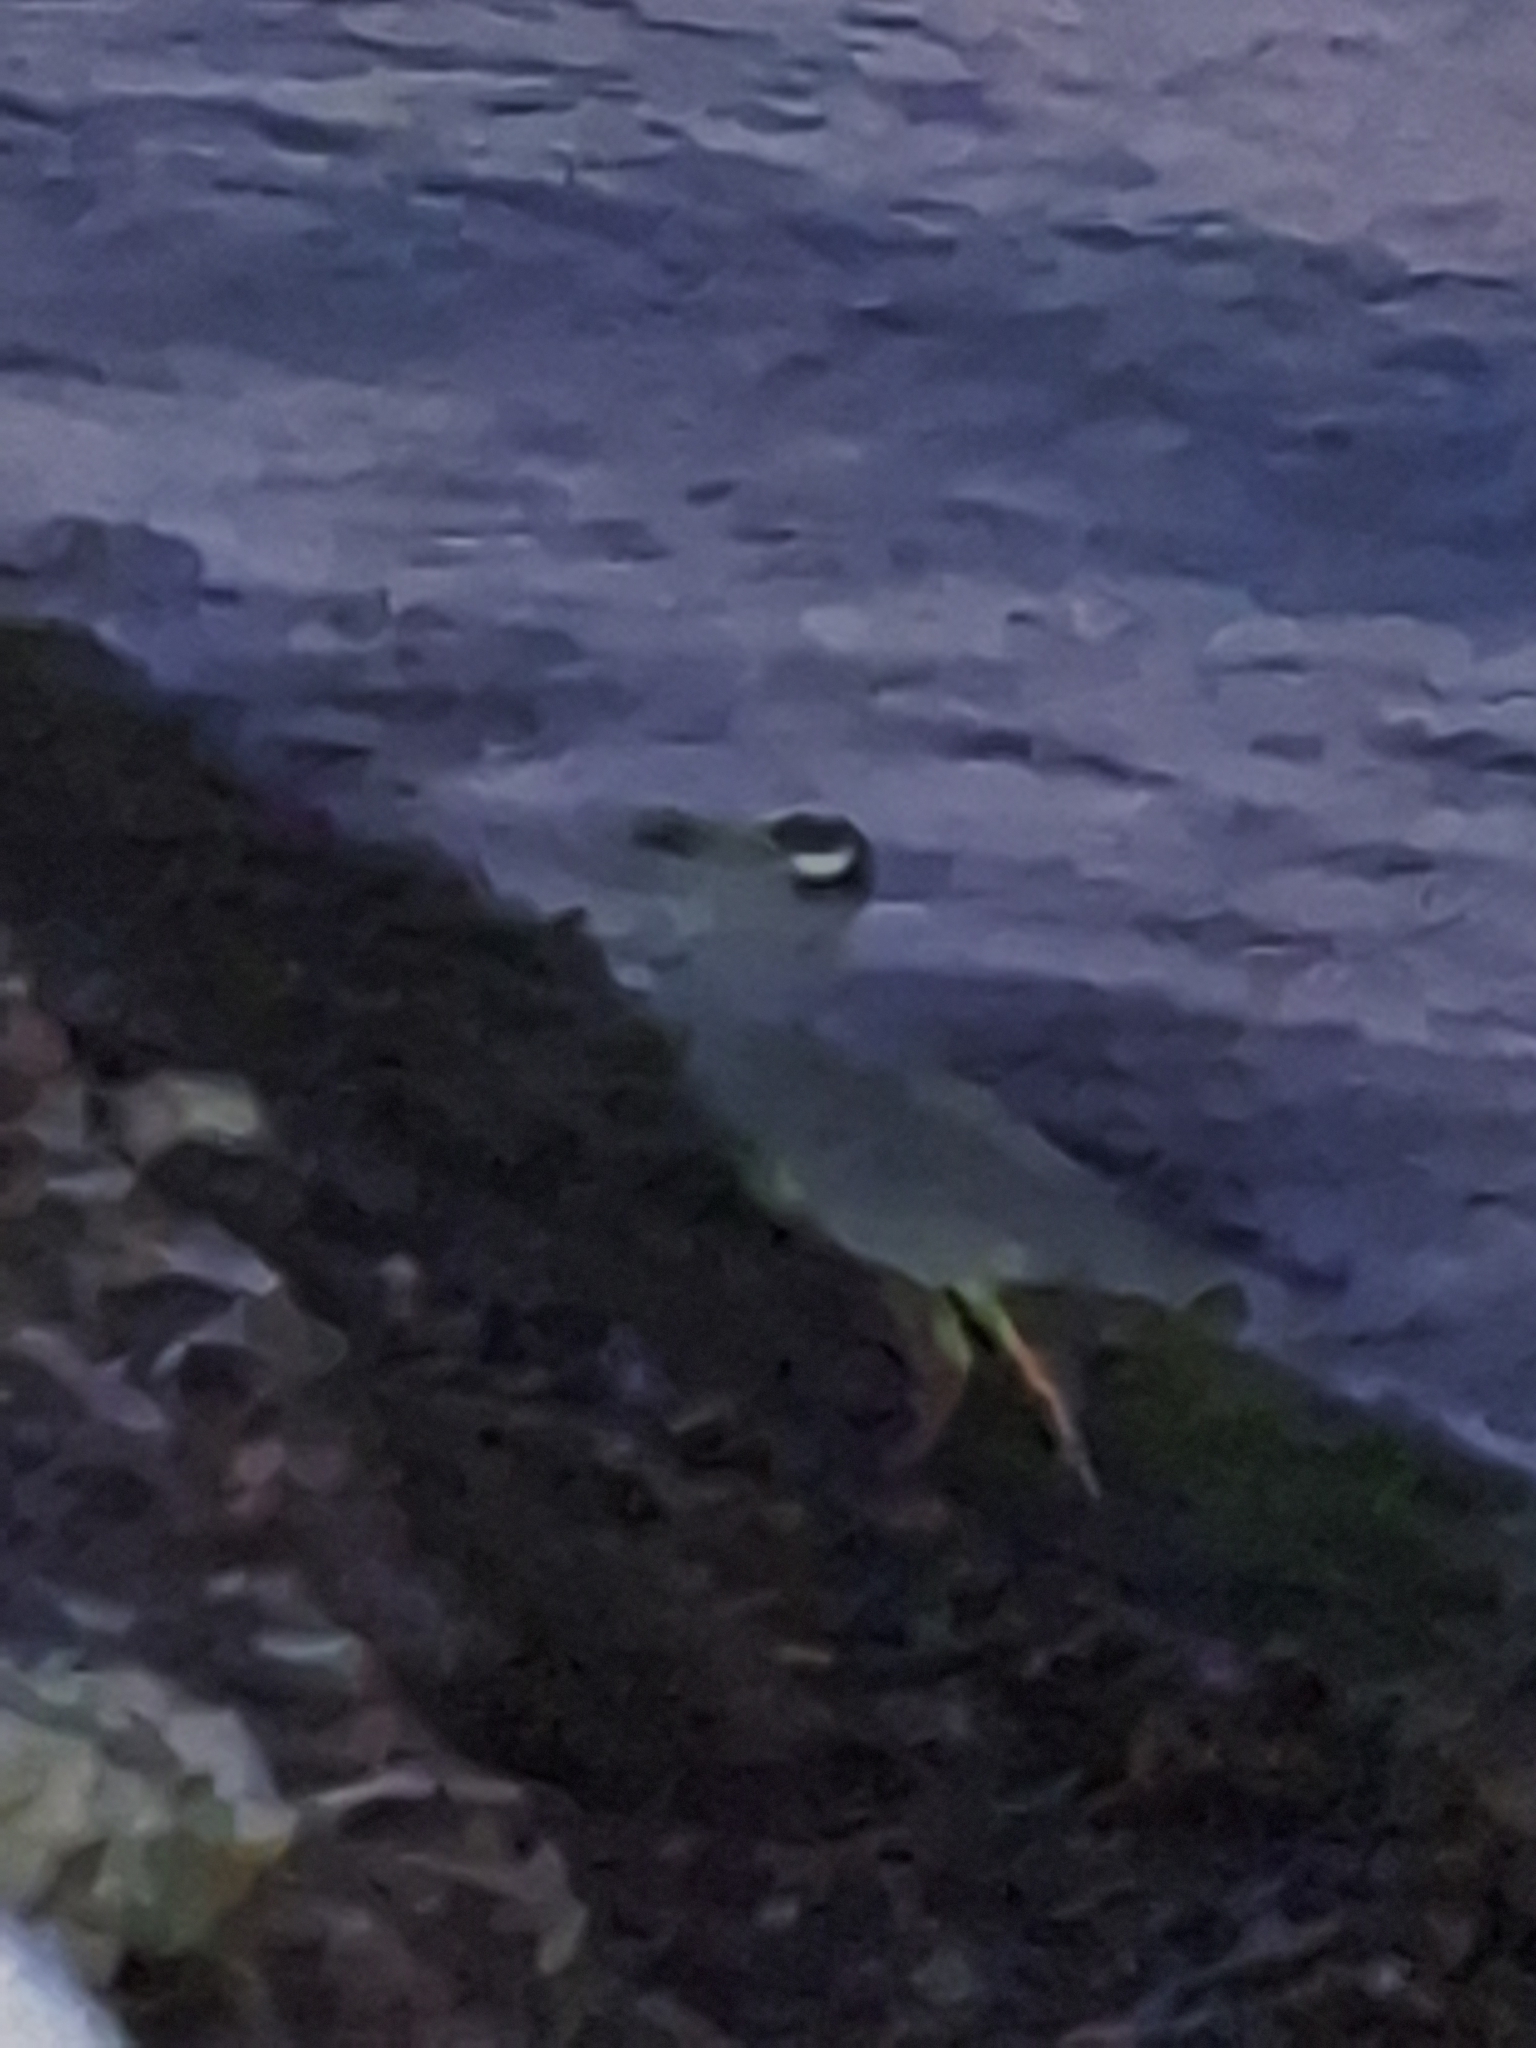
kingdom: Animalia
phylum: Chordata
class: Aves
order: Pelecaniformes
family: Ardeidae
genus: Nyctanassa
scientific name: Nyctanassa violacea
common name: Yellow-crowned night heron
